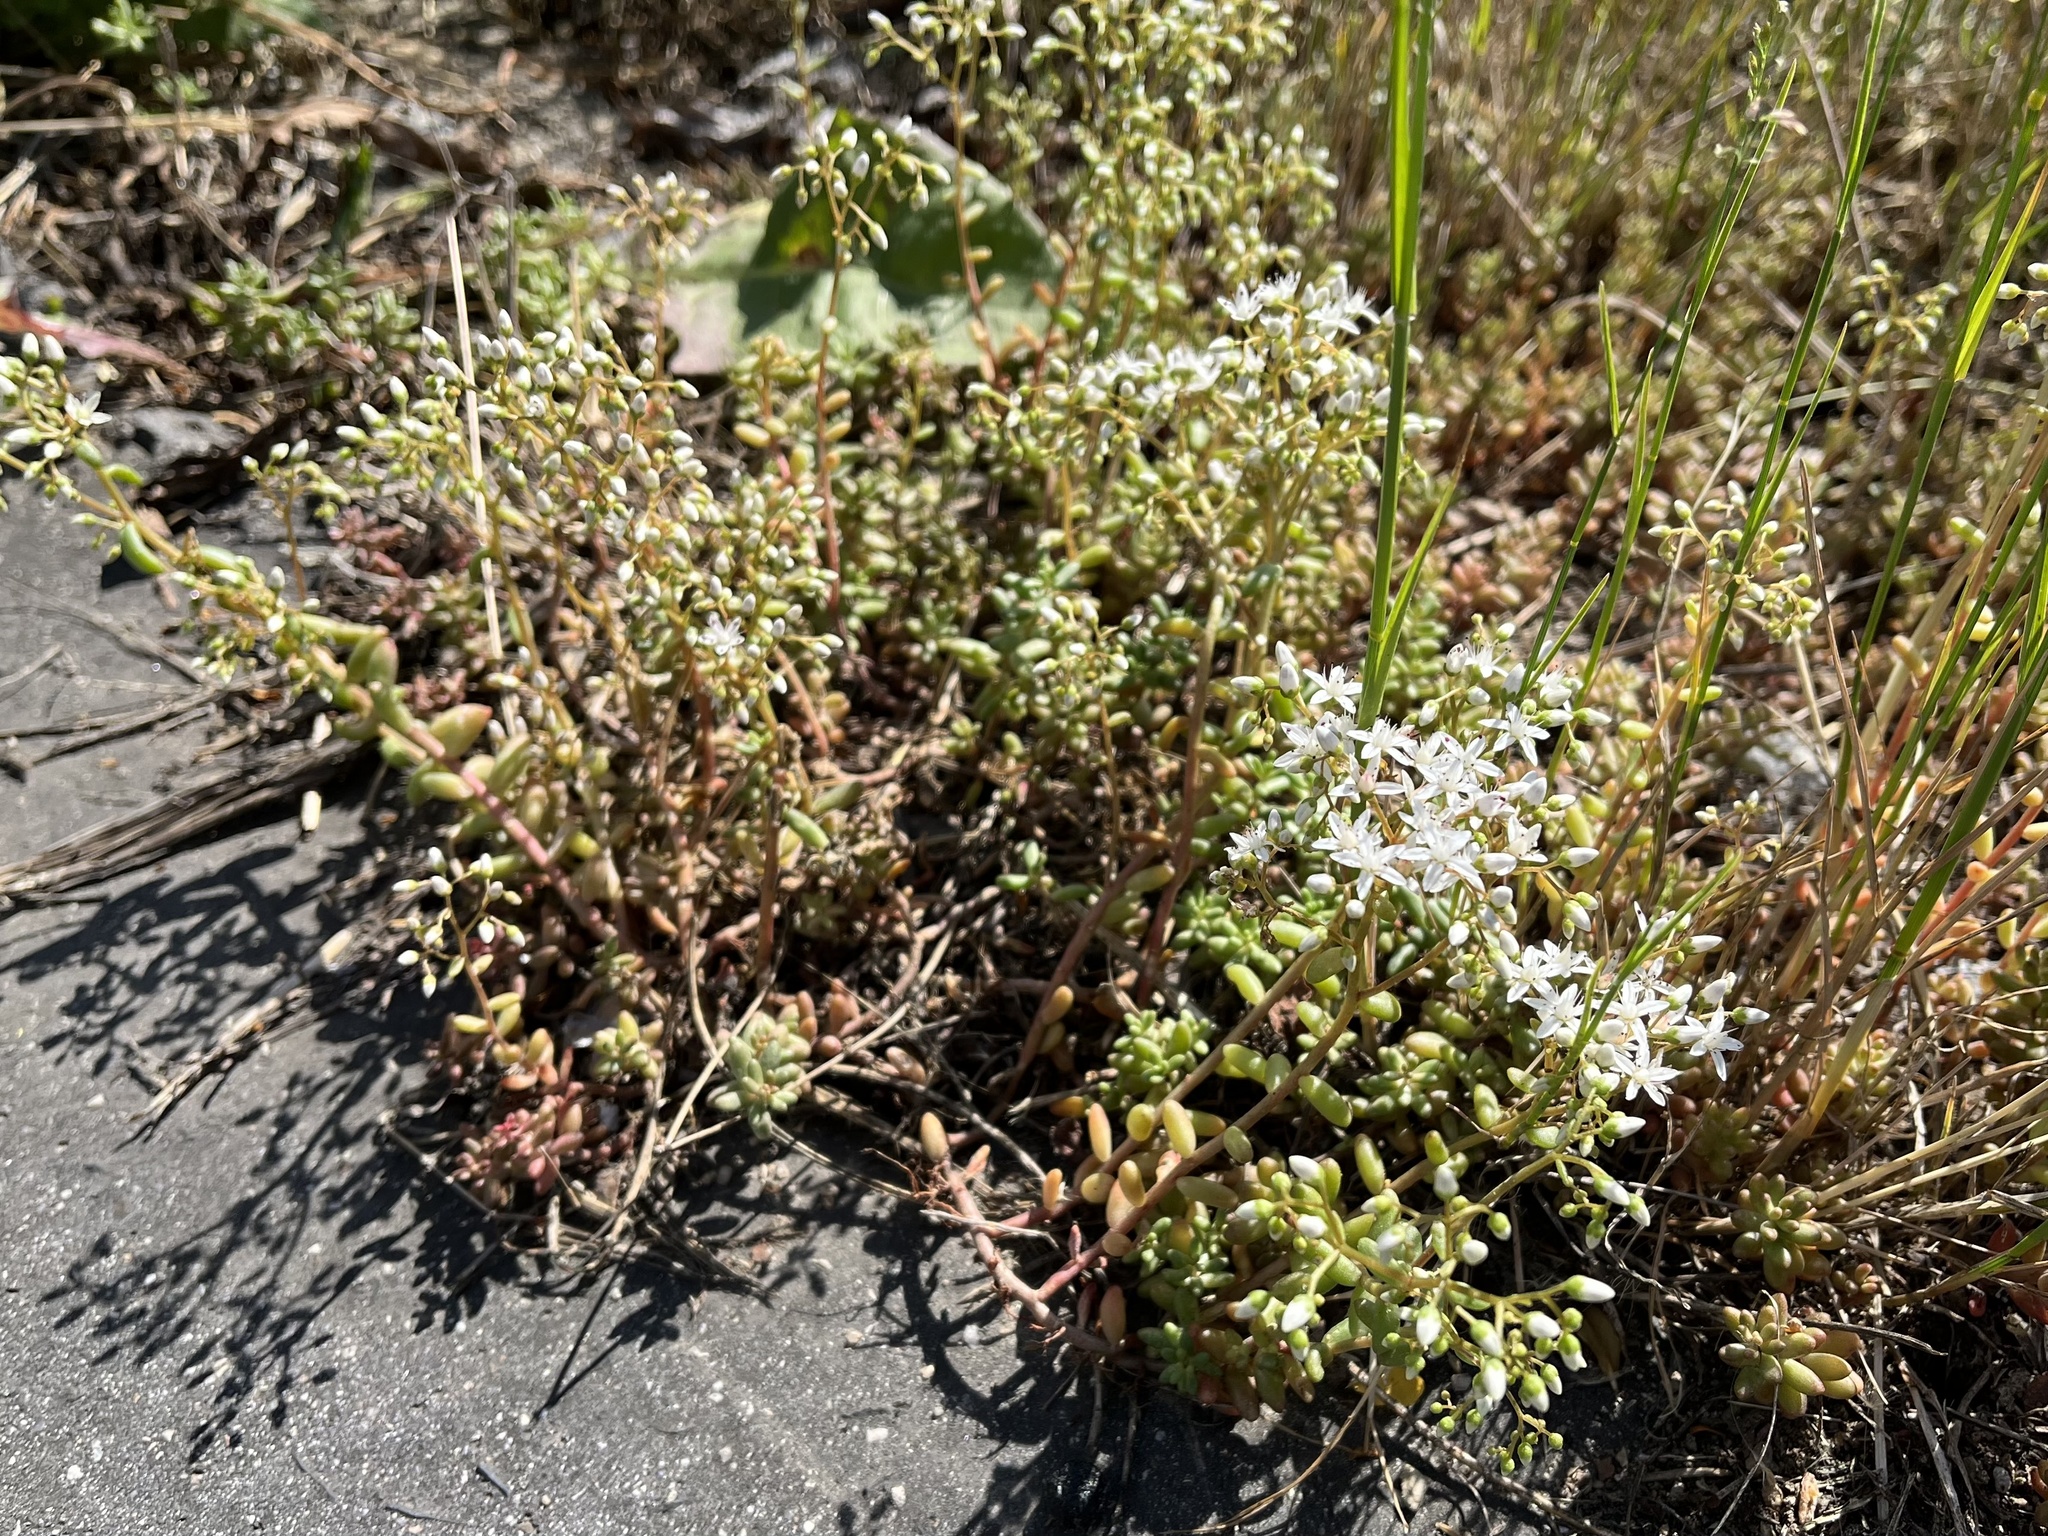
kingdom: Plantae
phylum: Tracheophyta
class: Magnoliopsida
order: Saxifragales
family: Crassulaceae
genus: Sedum
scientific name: Sedum album
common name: White stonecrop
